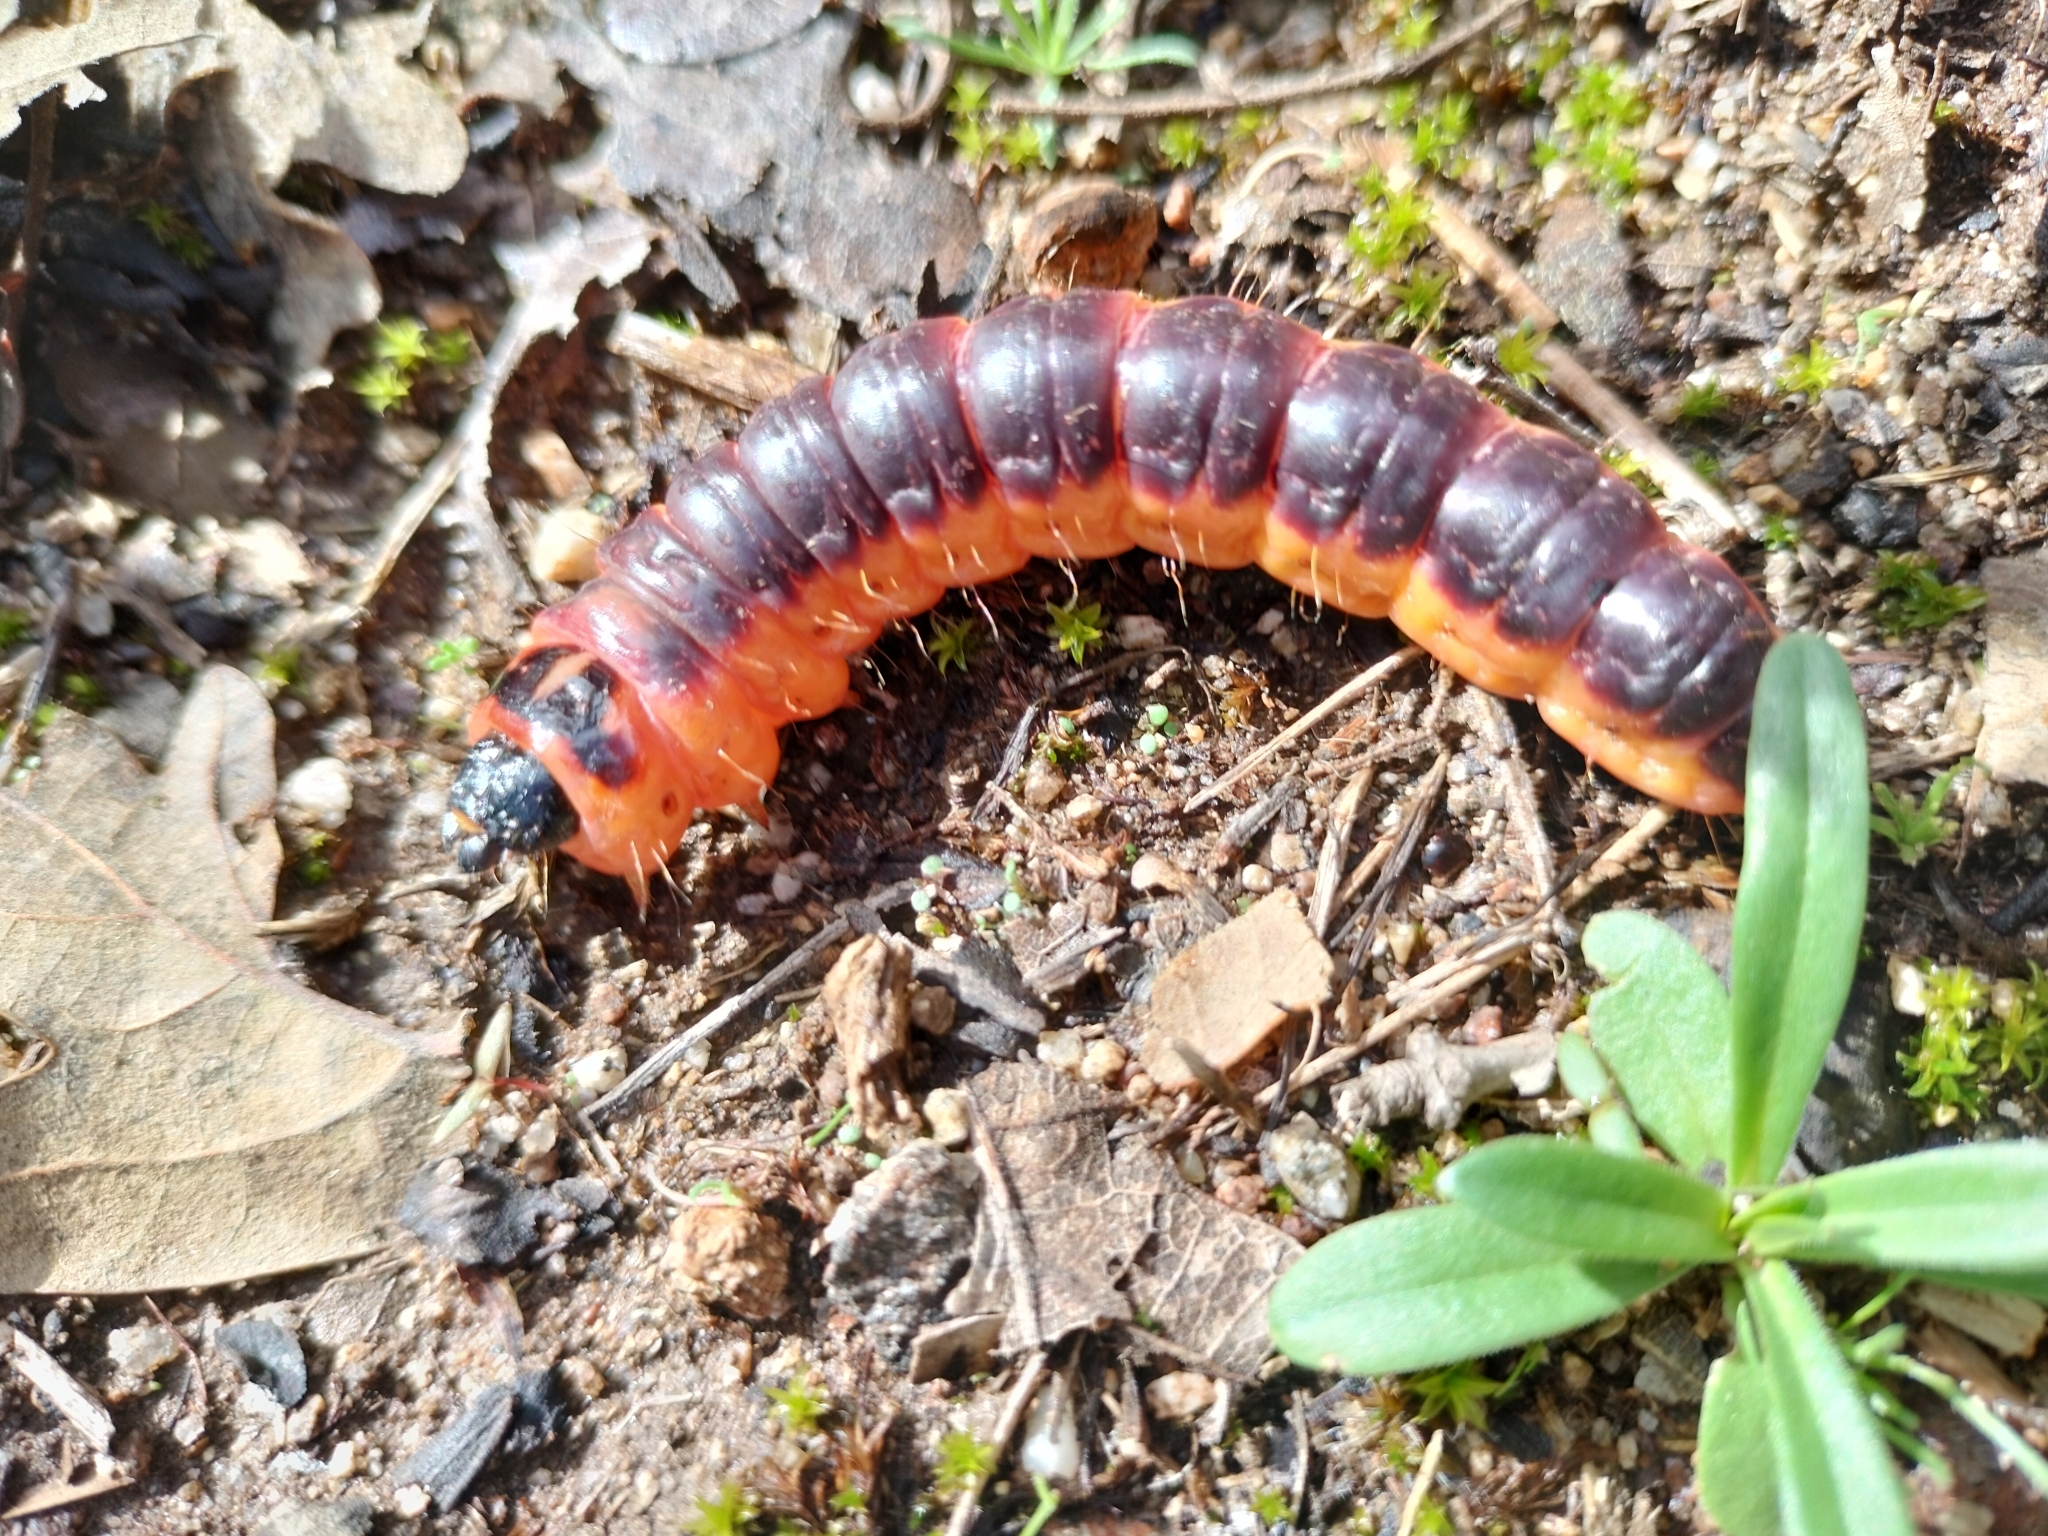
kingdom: Animalia
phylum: Arthropoda
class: Insecta
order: Lepidoptera
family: Cossidae
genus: Cossus
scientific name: Cossus cossus
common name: Goat moth
